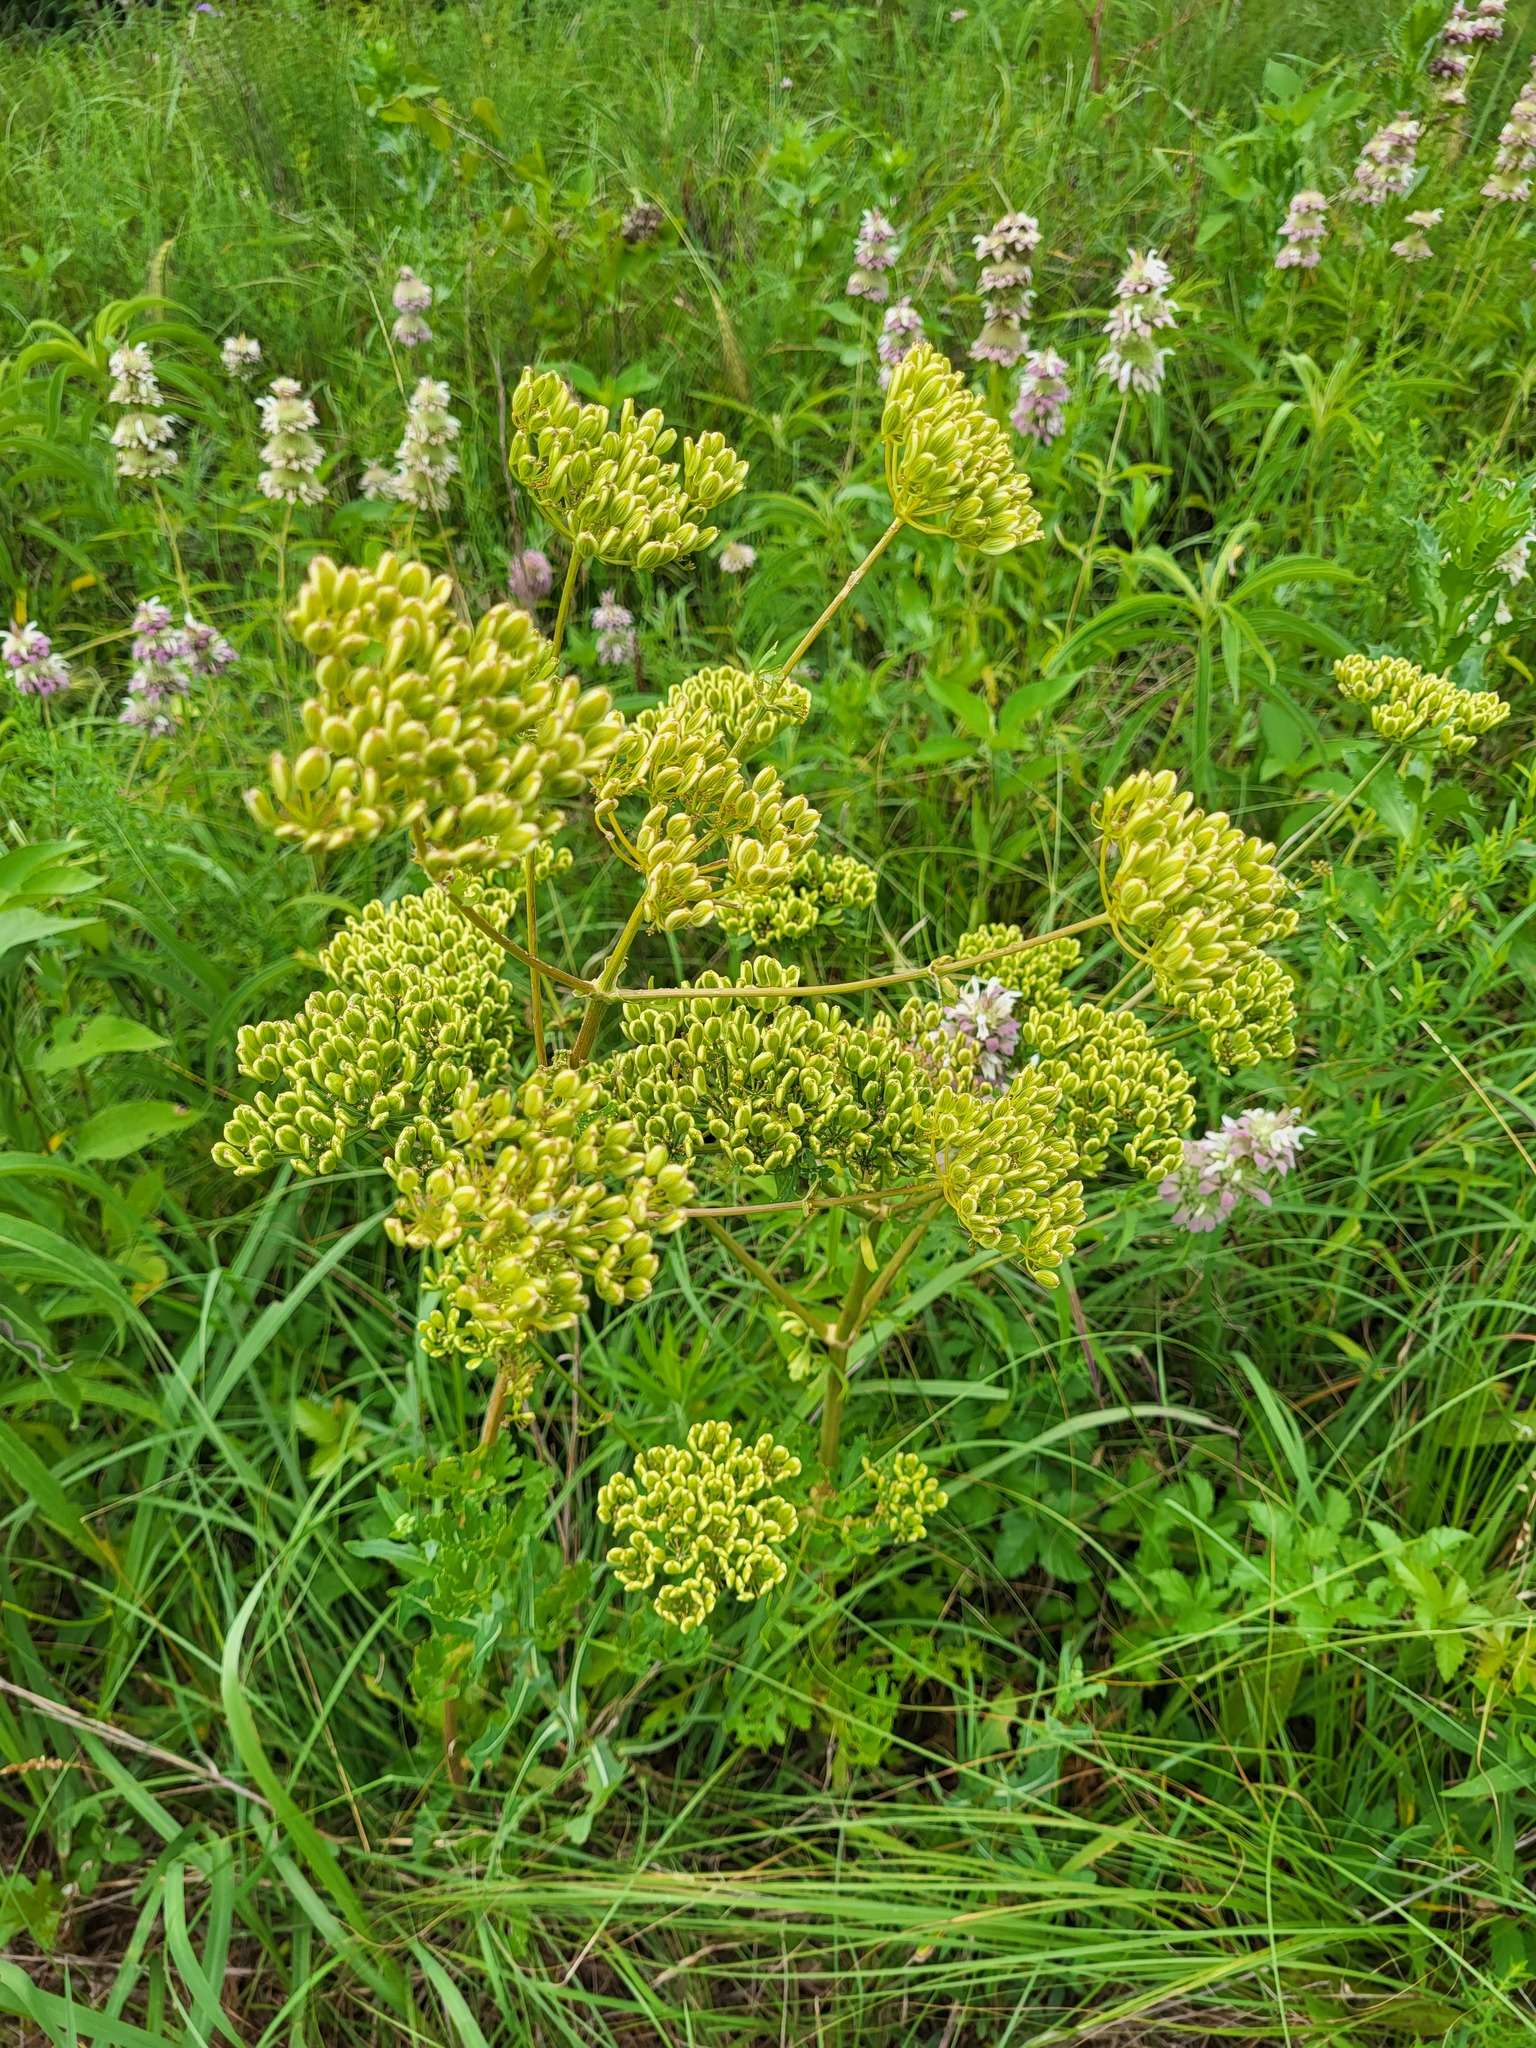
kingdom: Plantae
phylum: Tracheophyta
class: Magnoliopsida
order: Apiales
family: Apiaceae
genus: Polytaenia
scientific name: Polytaenia texana
